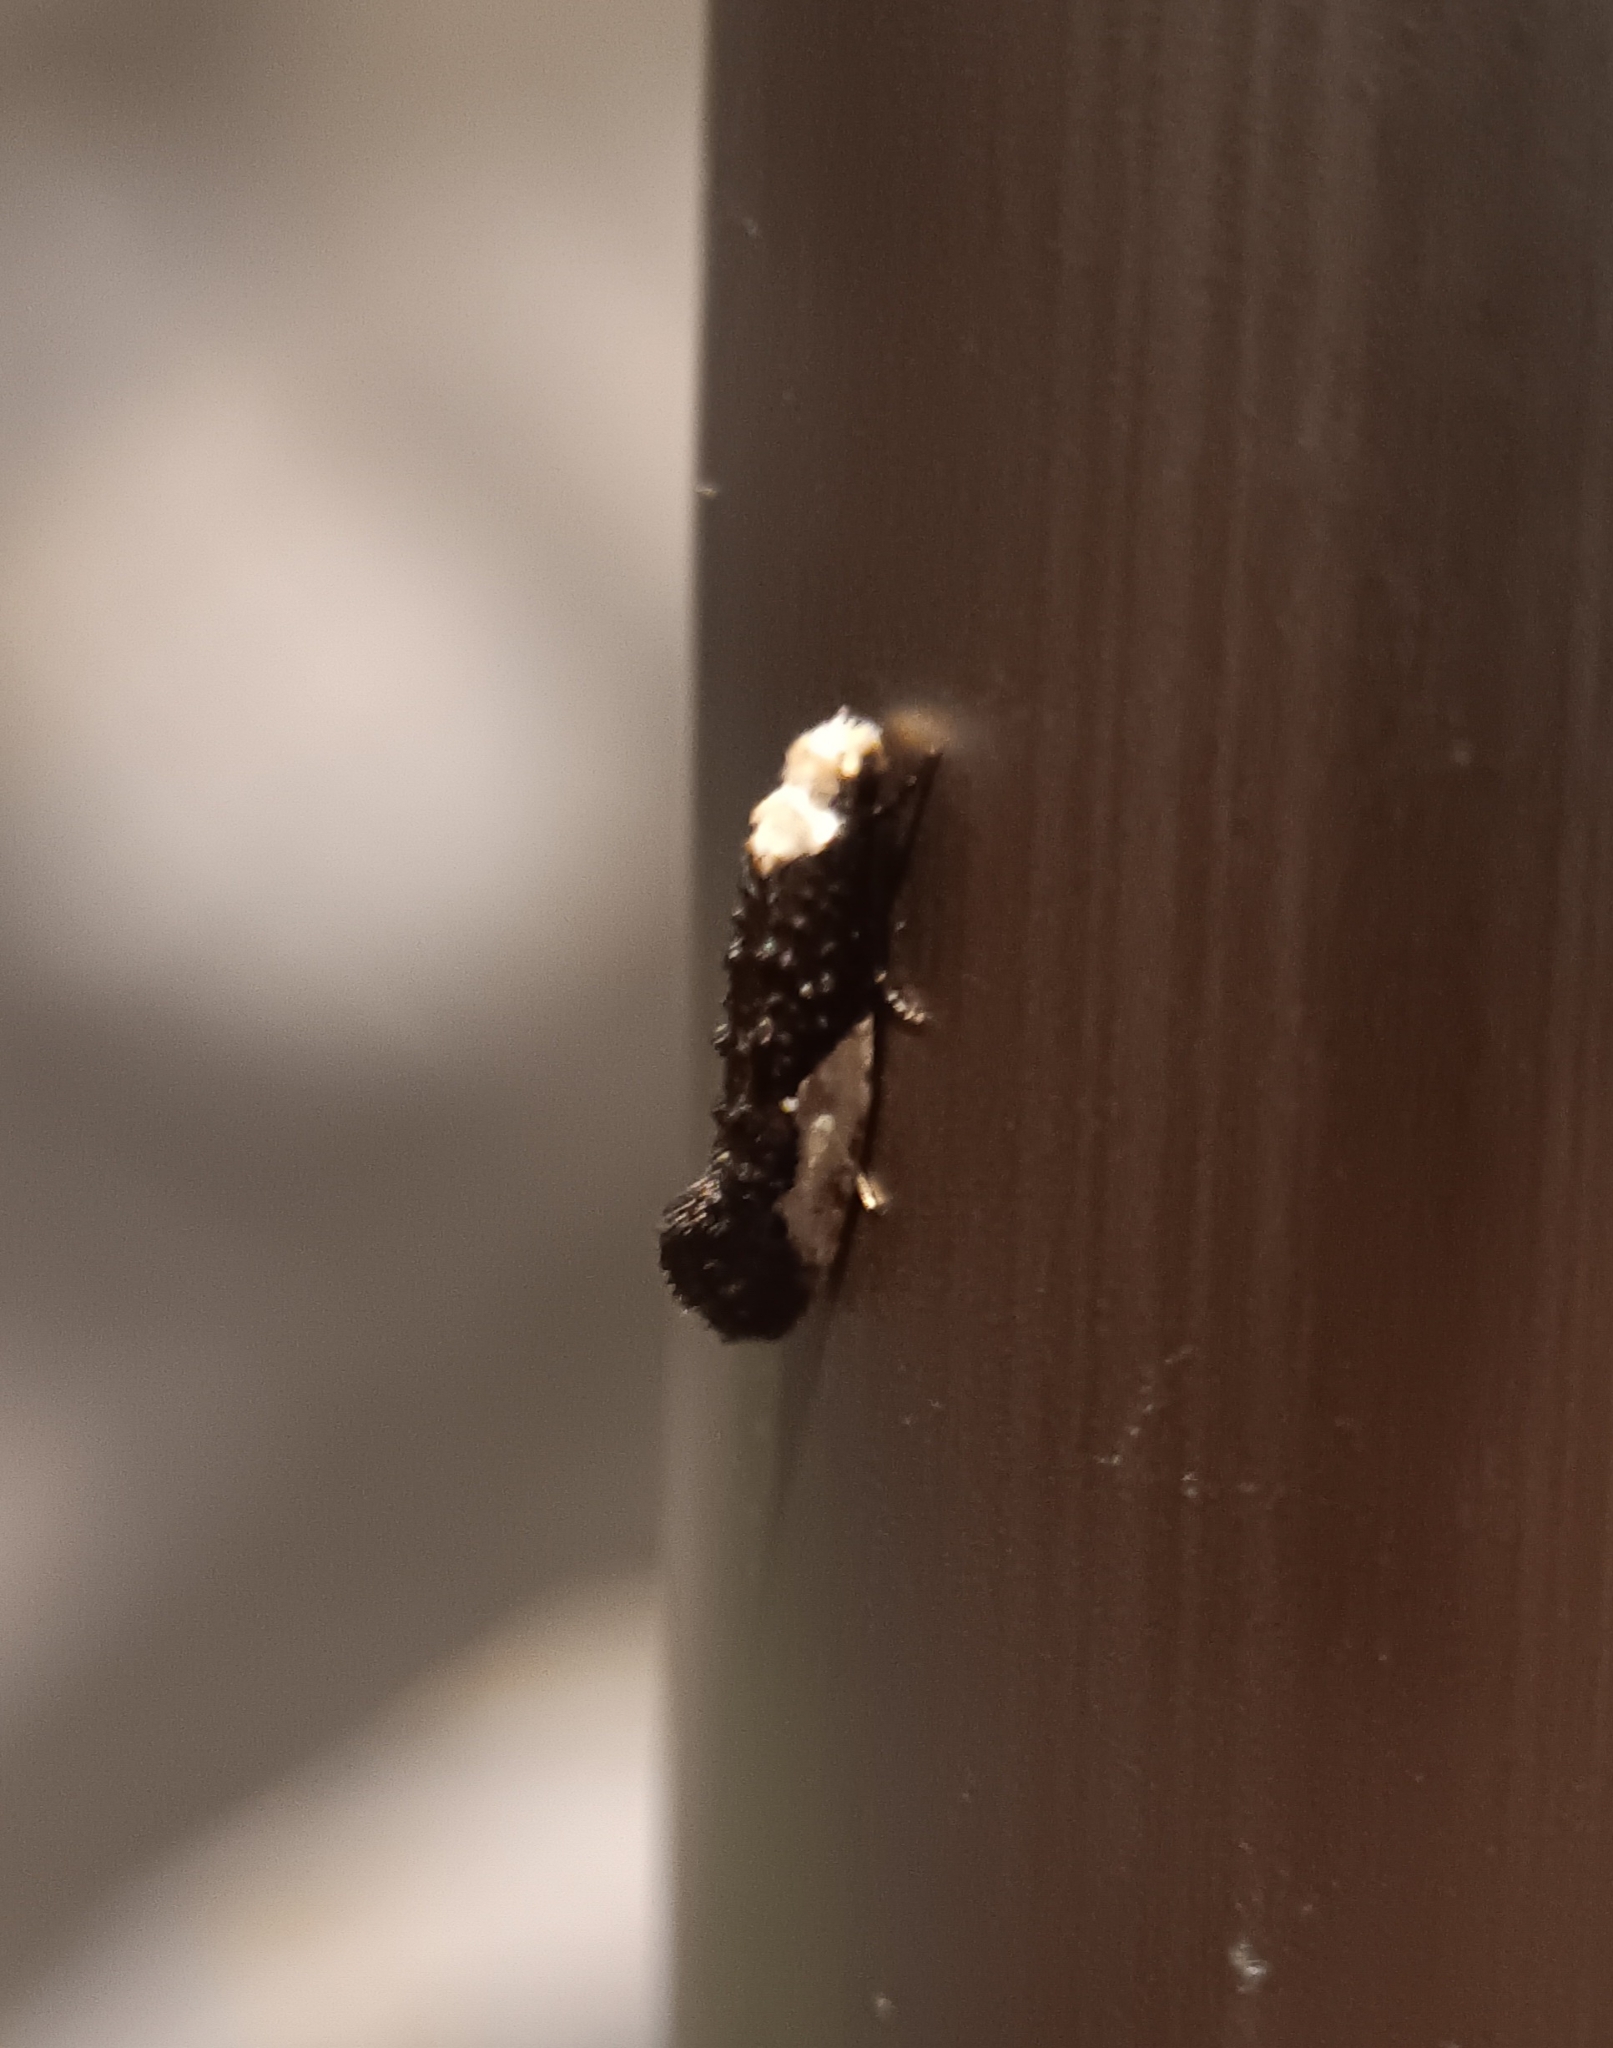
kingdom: Animalia
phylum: Arthropoda
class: Insecta
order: Lepidoptera
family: Tineidae
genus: Monopis
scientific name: Monopis longella
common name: Pavlovski's monopis moth
